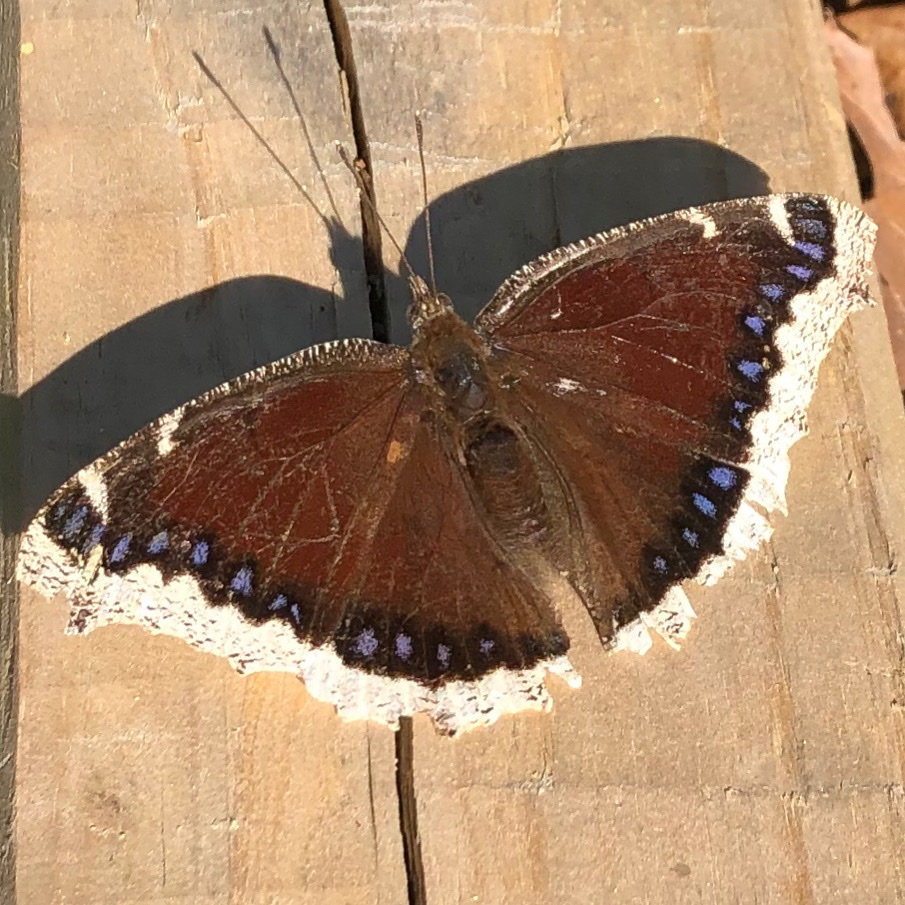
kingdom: Animalia
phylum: Arthropoda
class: Insecta
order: Lepidoptera
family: Nymphalidae
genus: Nymphalis
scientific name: Nymphalis antiopa
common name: Camberwell beauty
